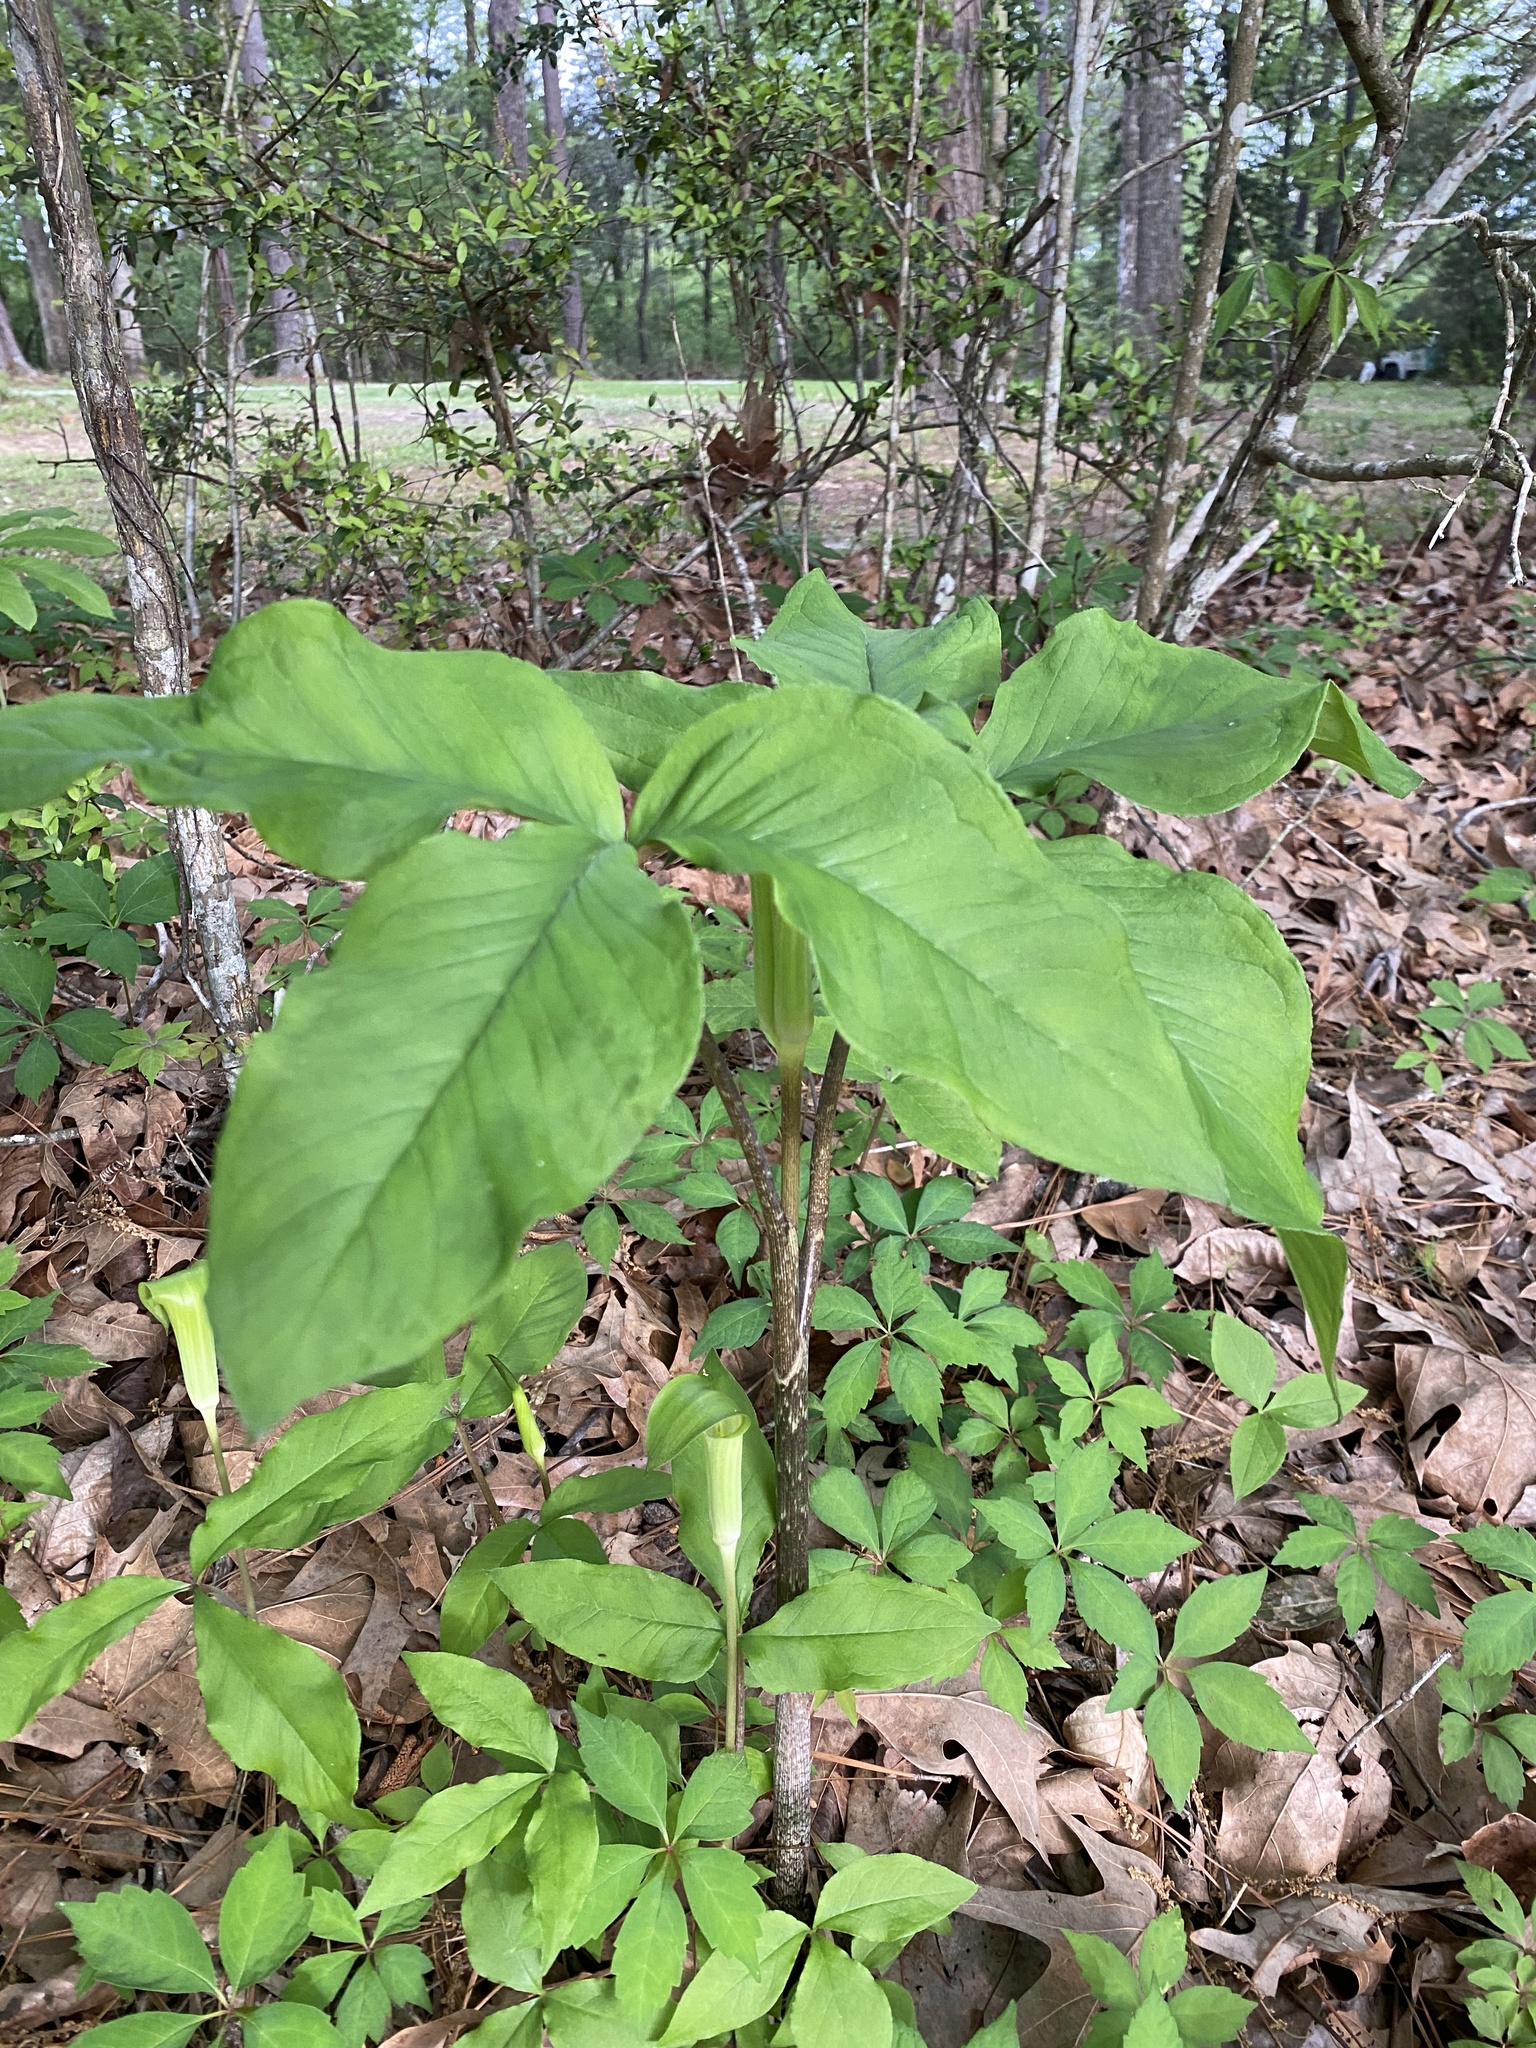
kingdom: Plantae
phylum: Tracheophyta
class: Liliopsida
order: Alismatales
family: Araceae
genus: Arisaema
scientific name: Arisaema quinatum
